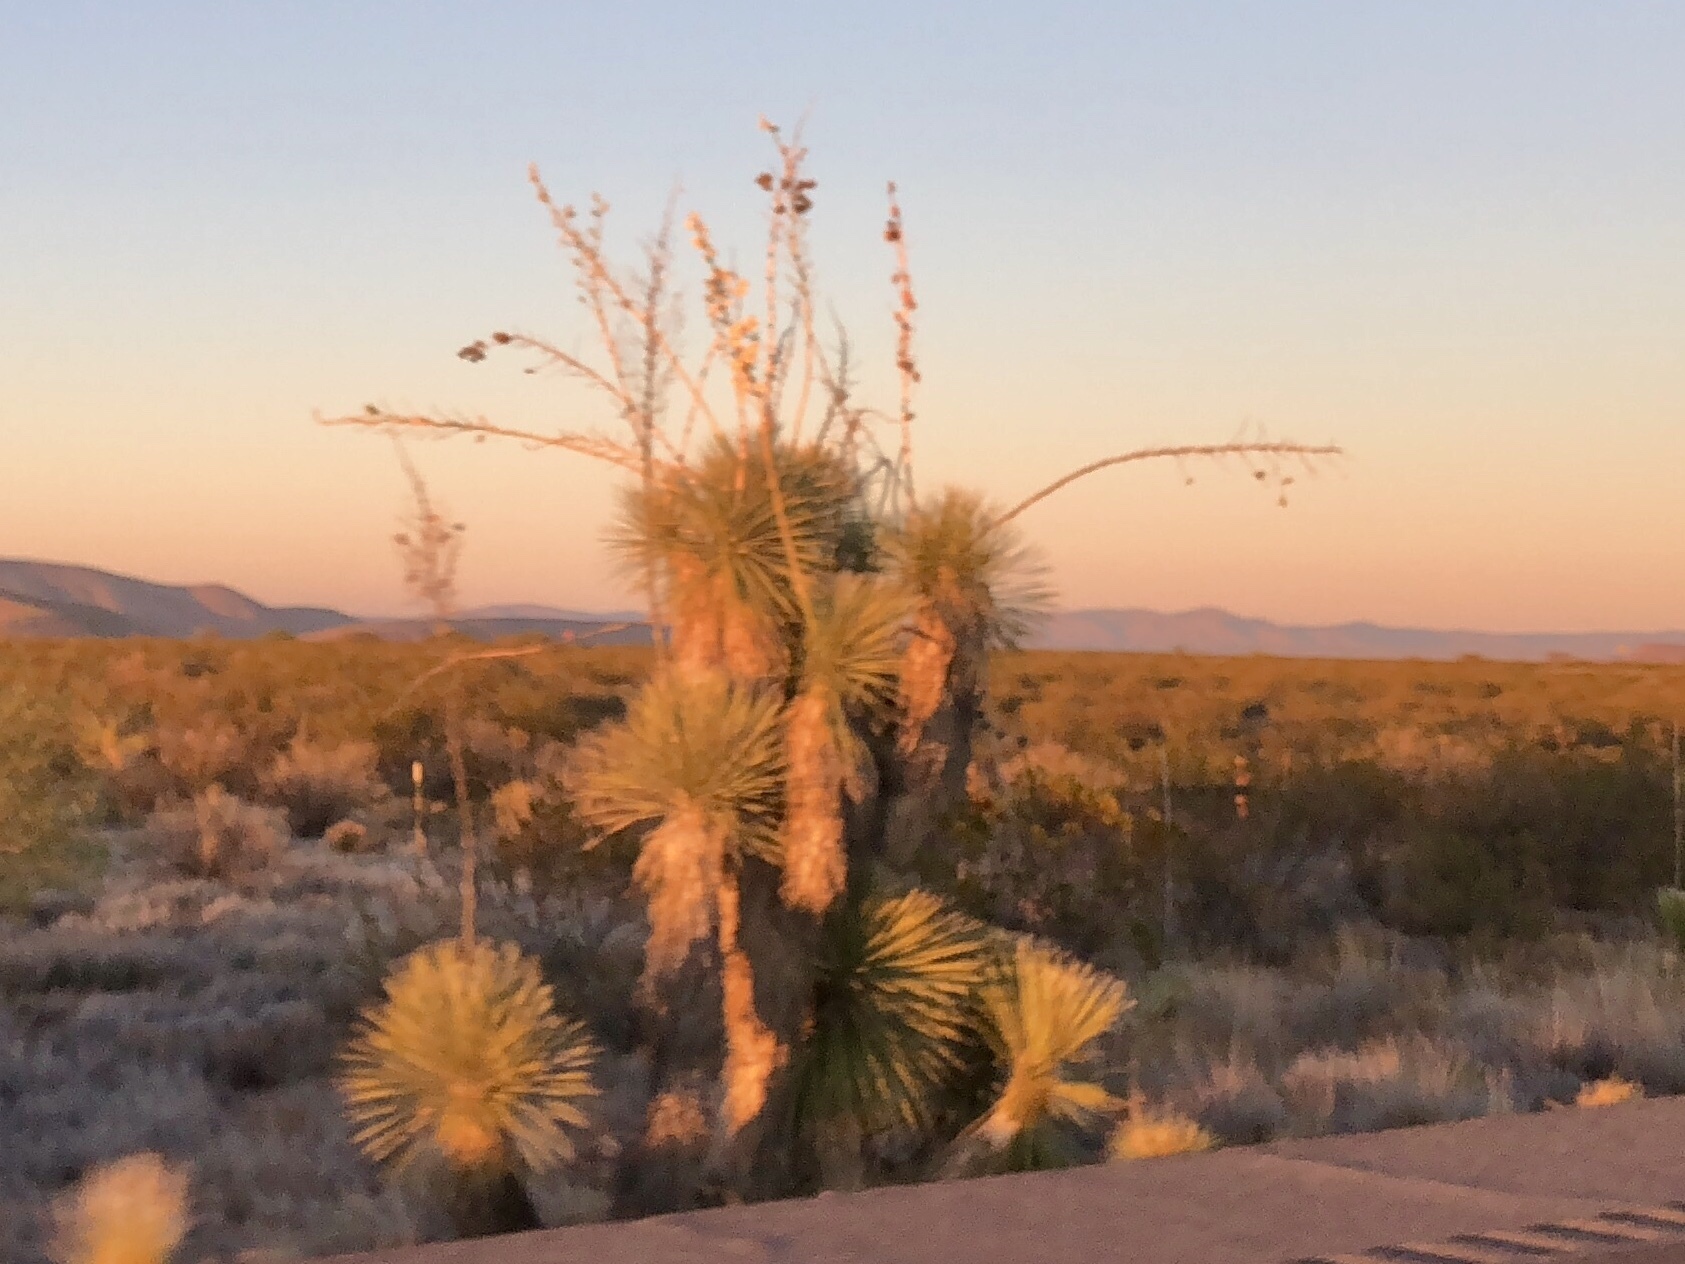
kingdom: Plantae
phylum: Tracheophyta
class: Liliopsida
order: Asparagales
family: Asparagaceae
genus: Yucca
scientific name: Yucca elata
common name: Palmella
